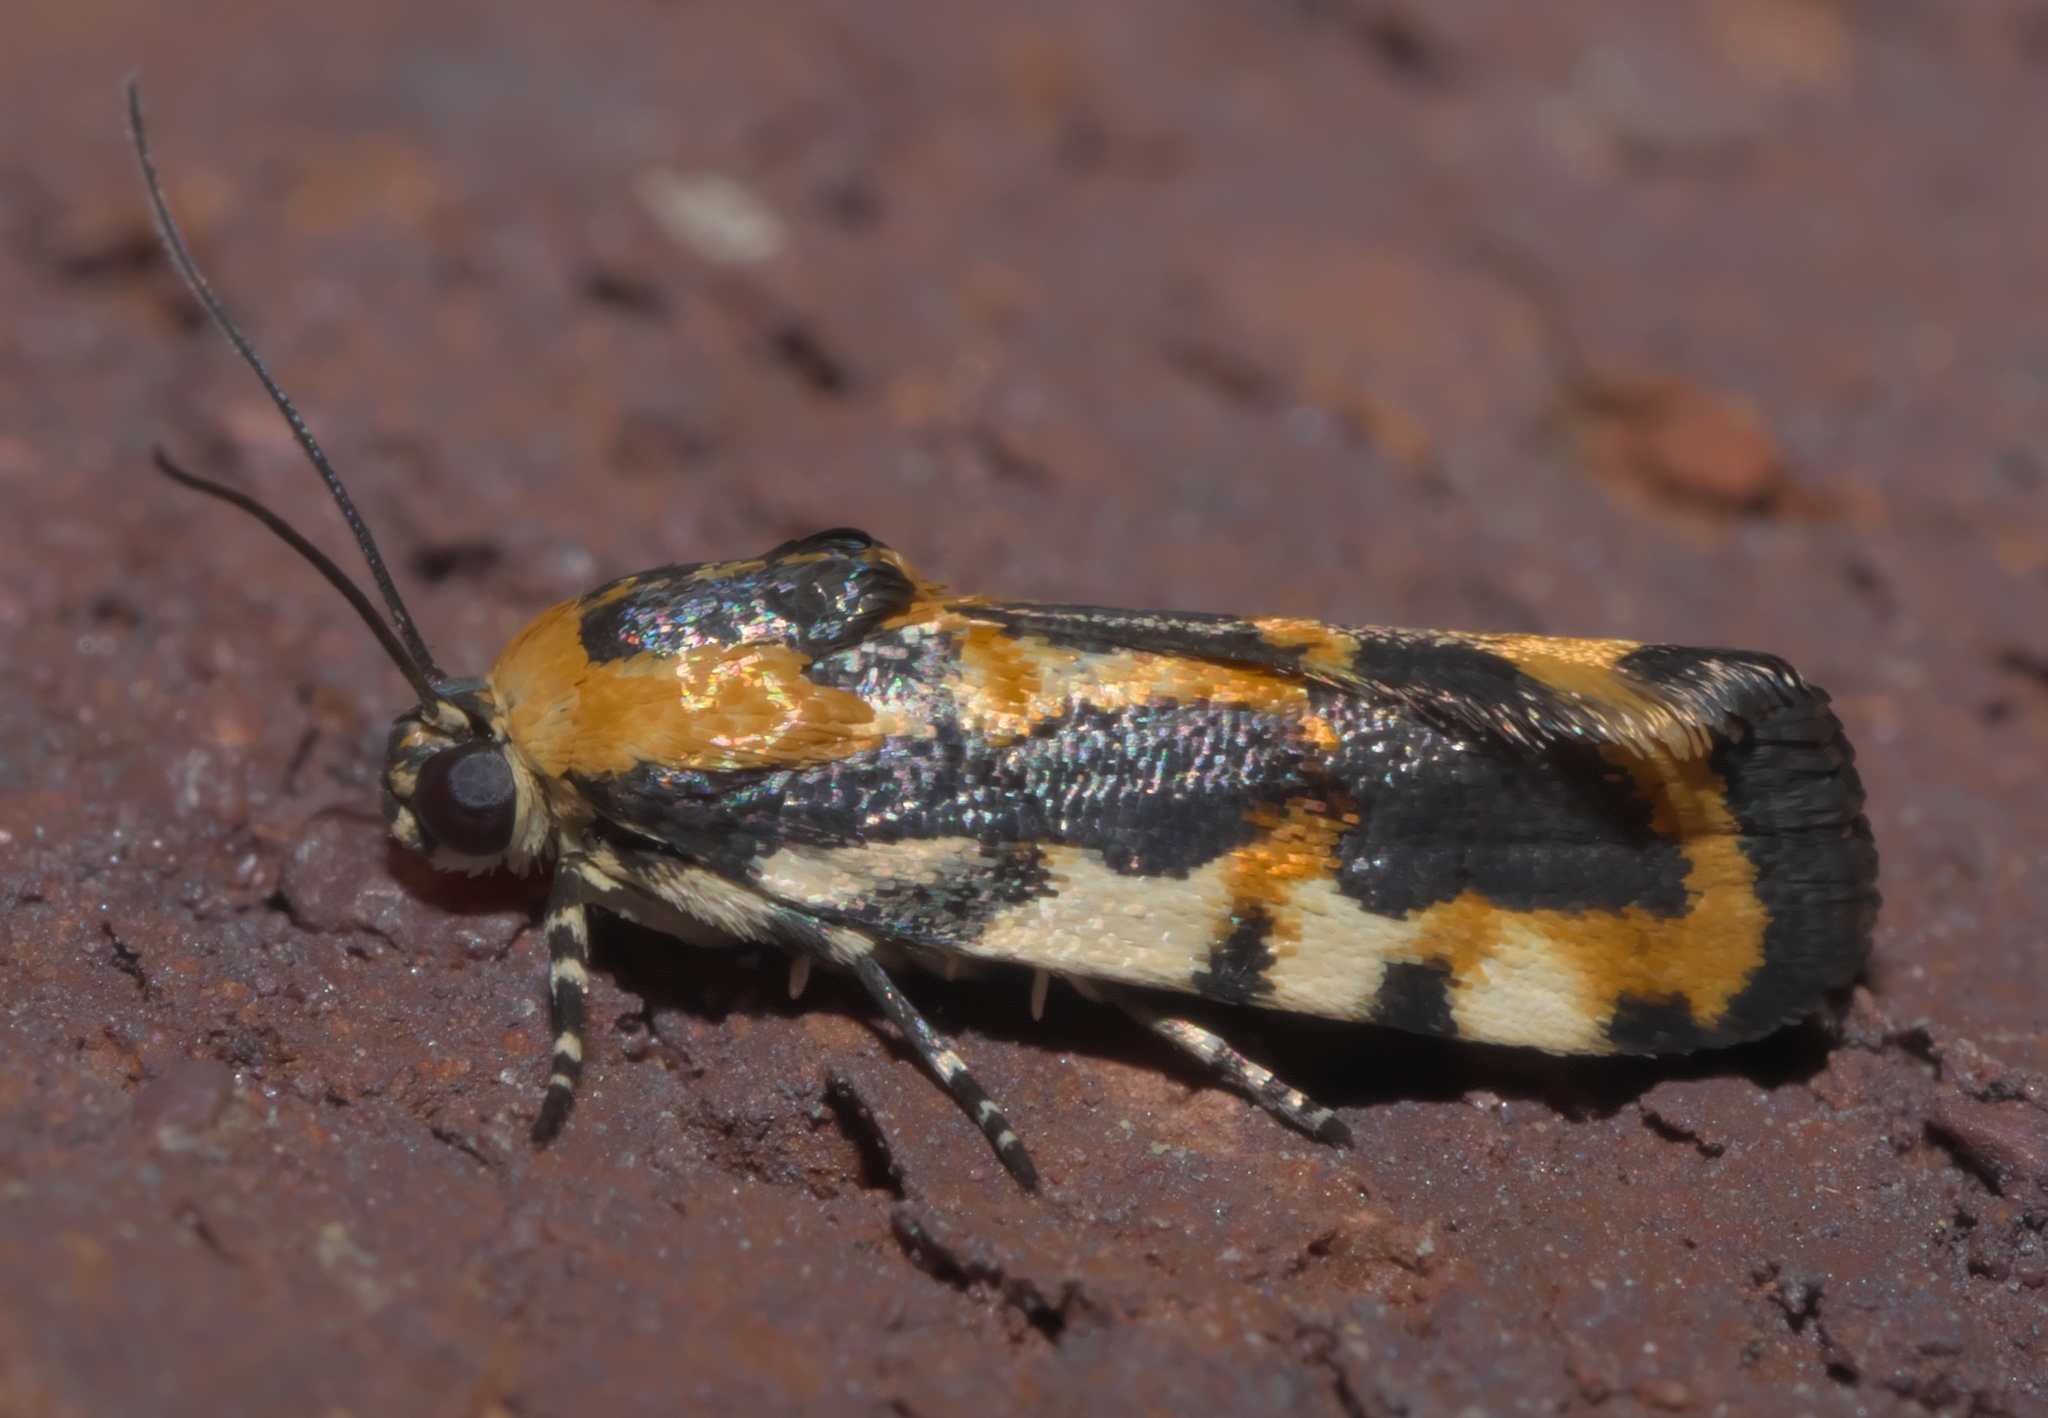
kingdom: Animalia
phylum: Arthropoda
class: Insecta
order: Lepidoptera
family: Noctuidae
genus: Acontia
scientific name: Acontia leo
